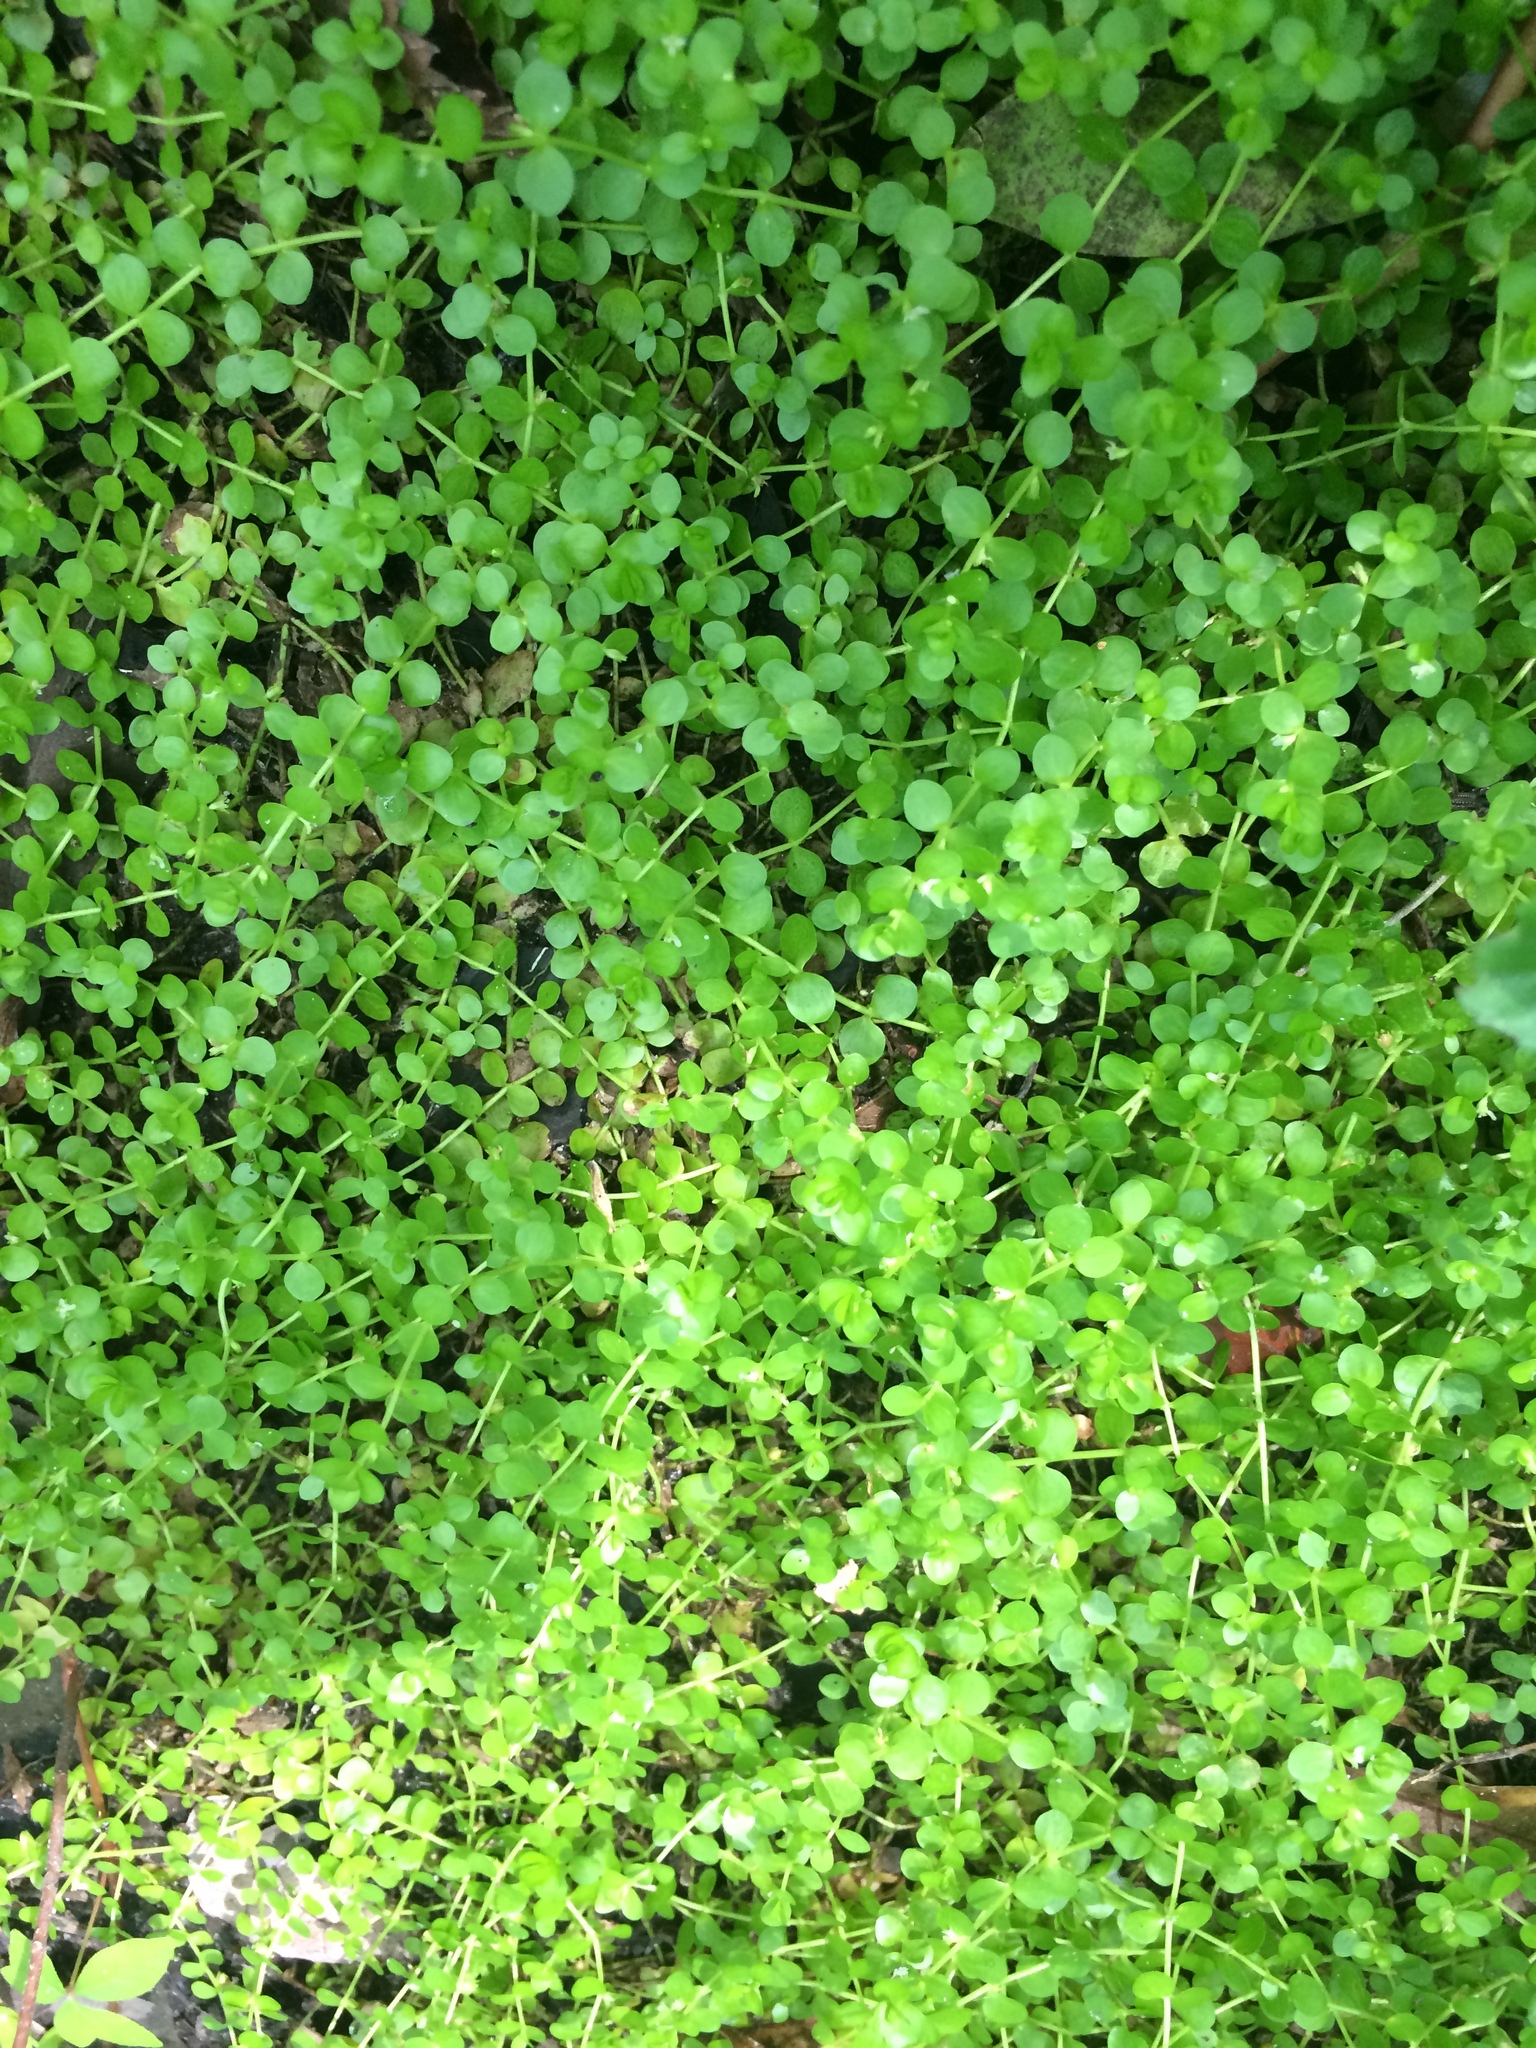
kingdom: Plantae
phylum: Tracheophyta
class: Magnoliopsida
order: Lamiales
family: Linderniaceae
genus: Micranthemum
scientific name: Micranthemum umbrosum
